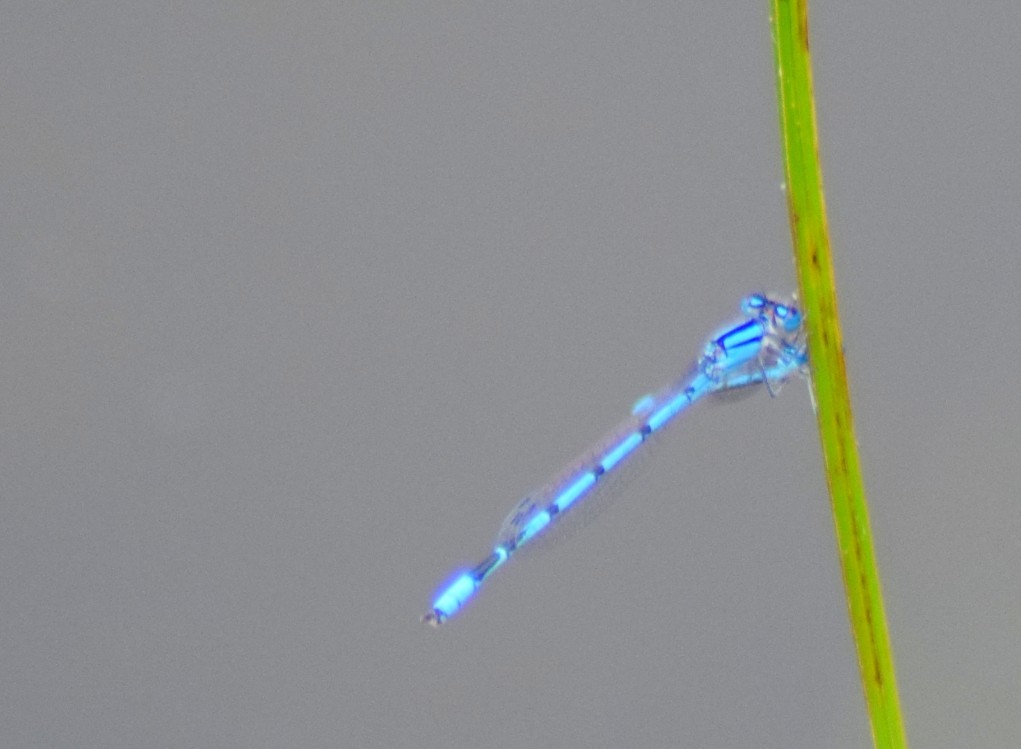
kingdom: Animalia
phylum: Arthropoda
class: Insecta
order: Odonata
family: Coenagrionidae
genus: Enallagma
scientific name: Enallagma civile
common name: Damselfly
